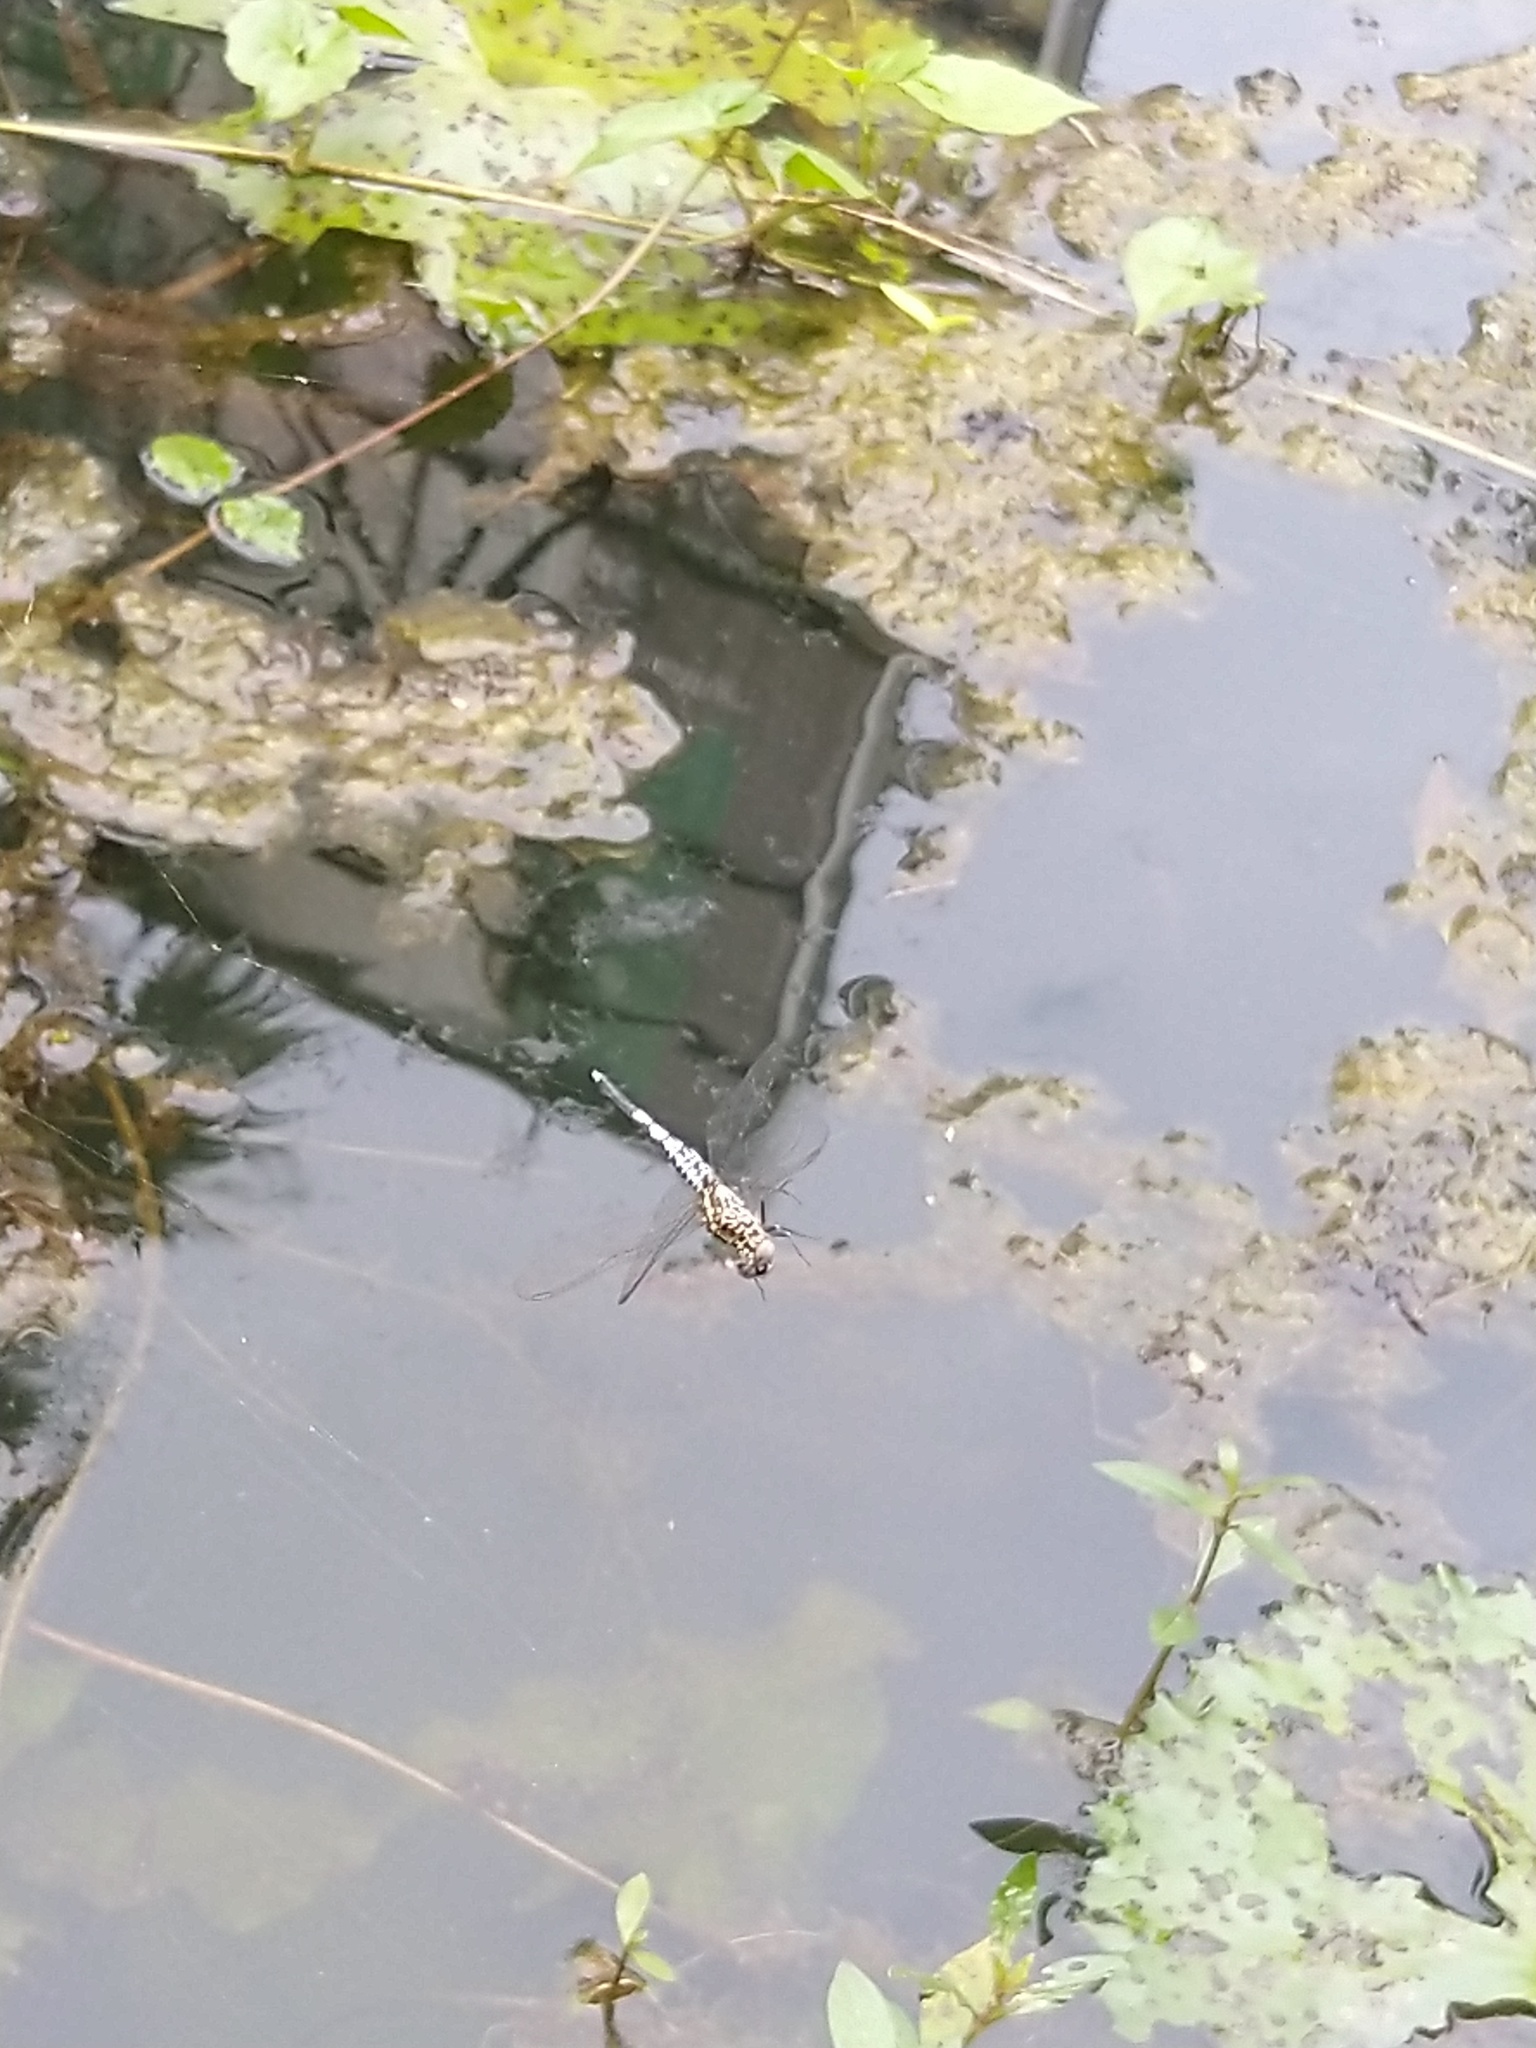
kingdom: Animalia
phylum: Arthropoda
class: Insecta
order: Odonata
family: Libellulidae
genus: Acisoma
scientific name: Acisoma panorpoides
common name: Asian pintail
